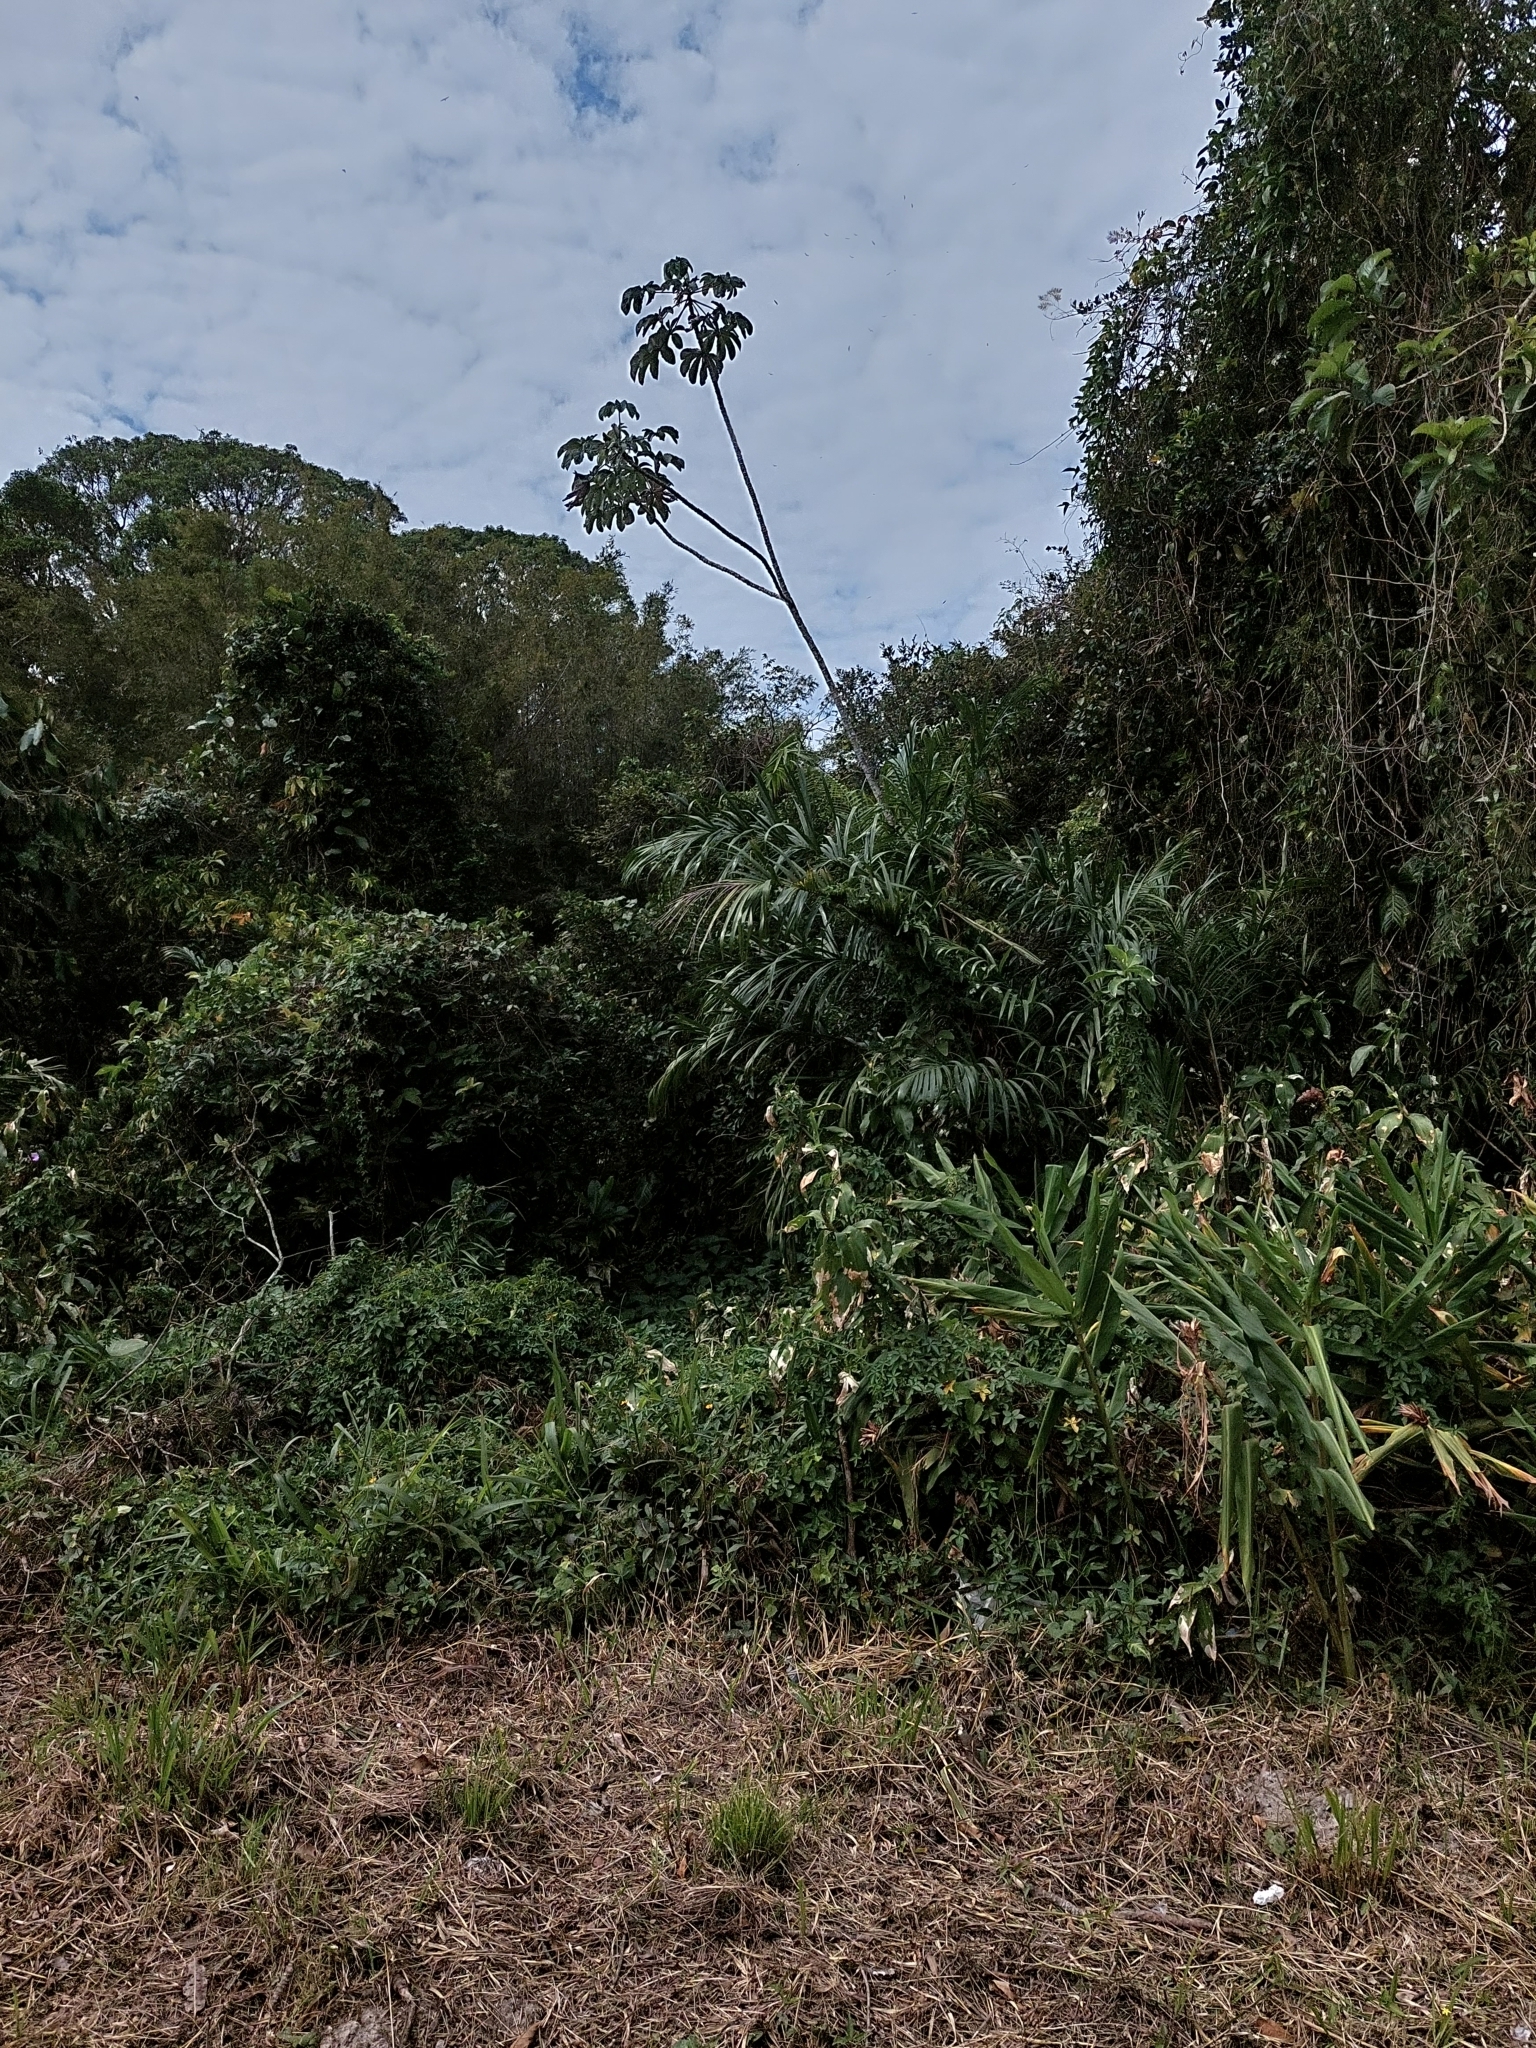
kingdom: Plantae
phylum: Tracheophyta
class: Liliopsida
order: Zingiberales
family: Zingiberaceae
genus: Hedychium
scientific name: Hedychium coronarium
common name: White garland-lily
